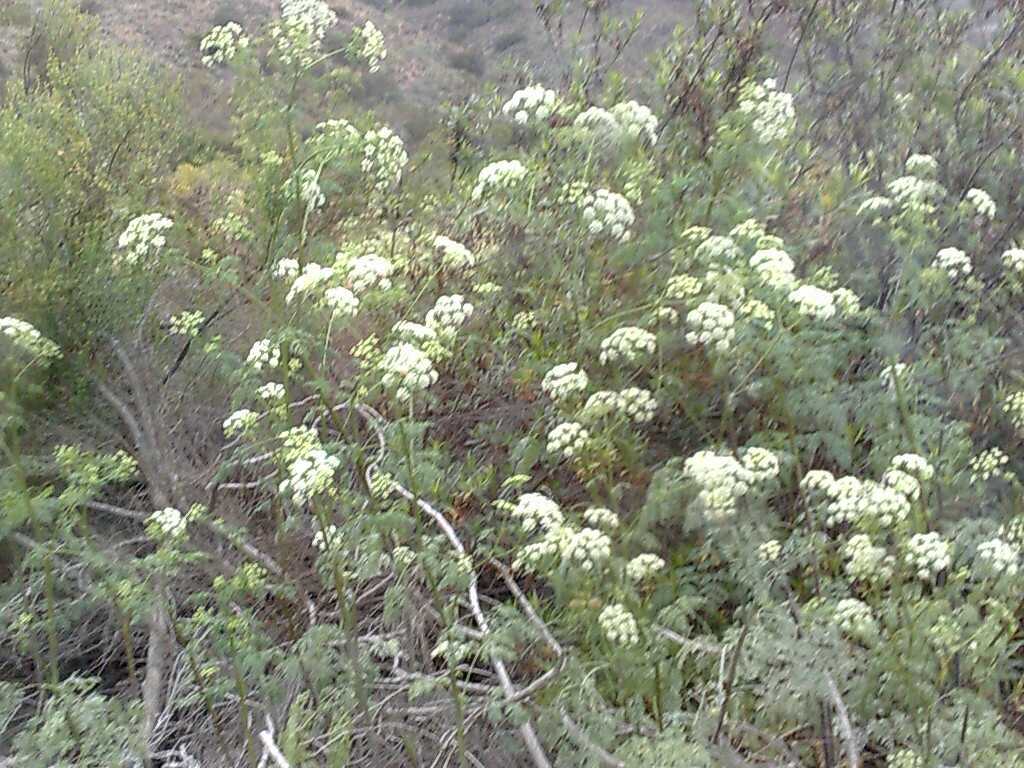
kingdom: Plantae
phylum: Tracheophyta
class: Magnoliopsida
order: Apiales
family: Apiaceae
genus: Conium
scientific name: Conium maculatum
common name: Hemlock
